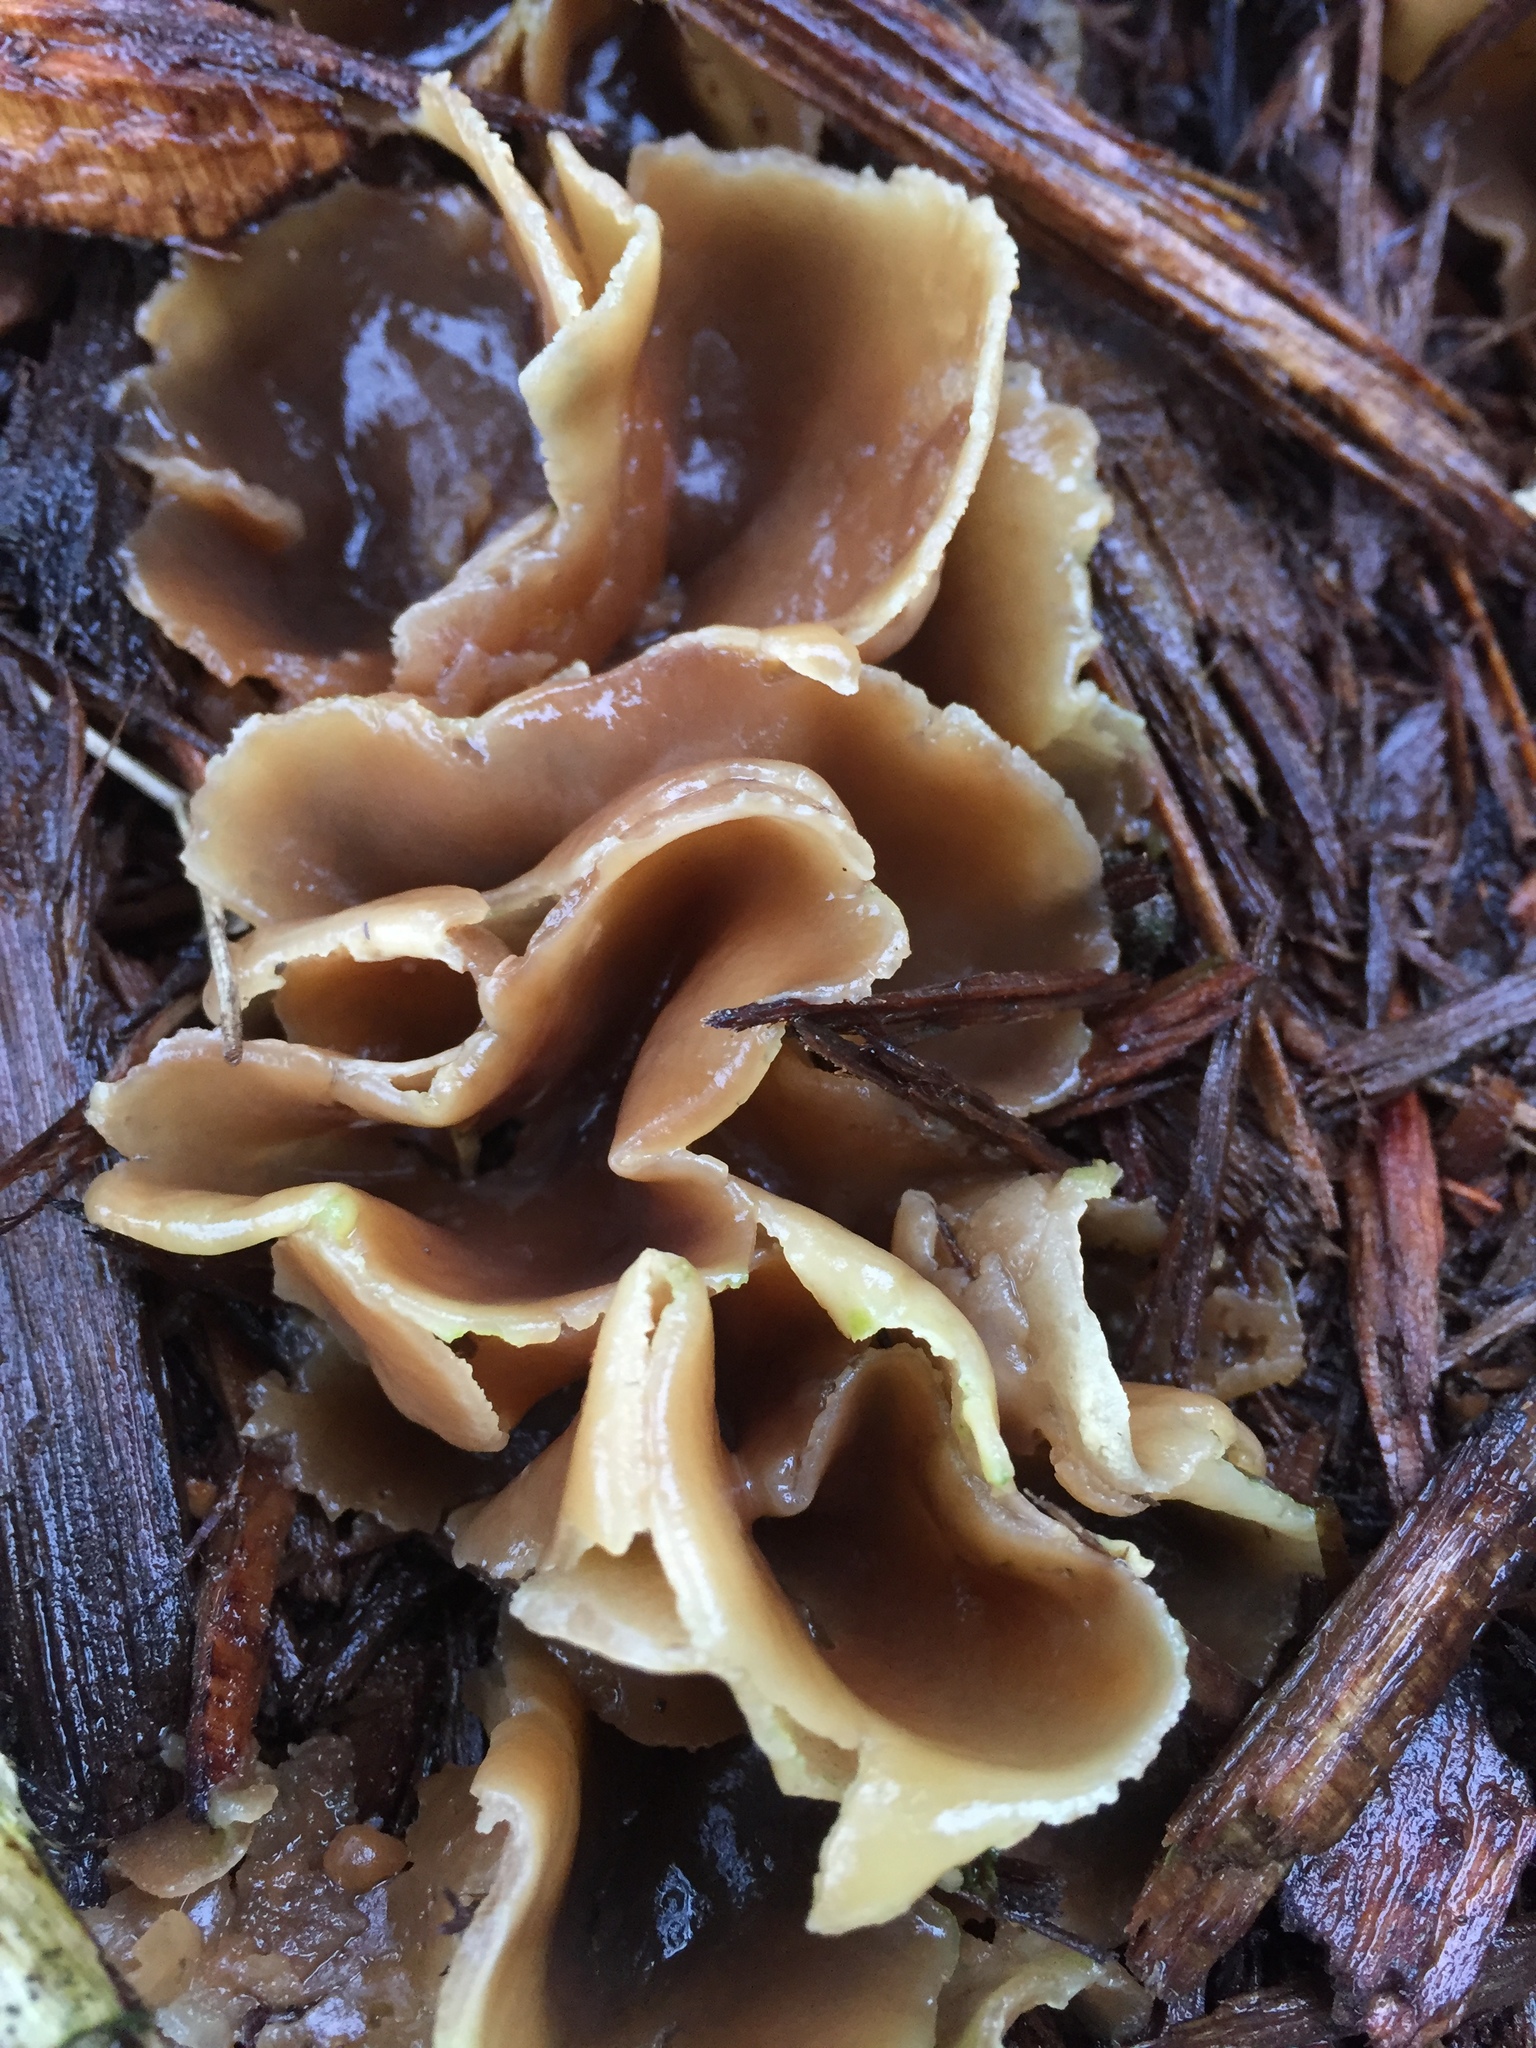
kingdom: Fungi
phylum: Ascomycota
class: Pezizomycetes
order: Pezizales
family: Pezizaceae
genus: Peziza
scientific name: Peziza vesiculosa
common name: Blistered cup
